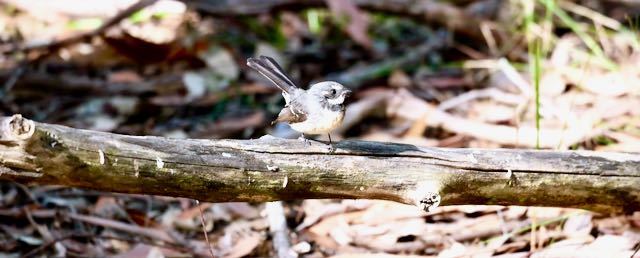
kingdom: Animalia
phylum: Chordata
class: Aves
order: Passeriformes
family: Rhipiduridae
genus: Rhipidura
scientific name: Rhipidura albiscapa
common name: Grey fantail
